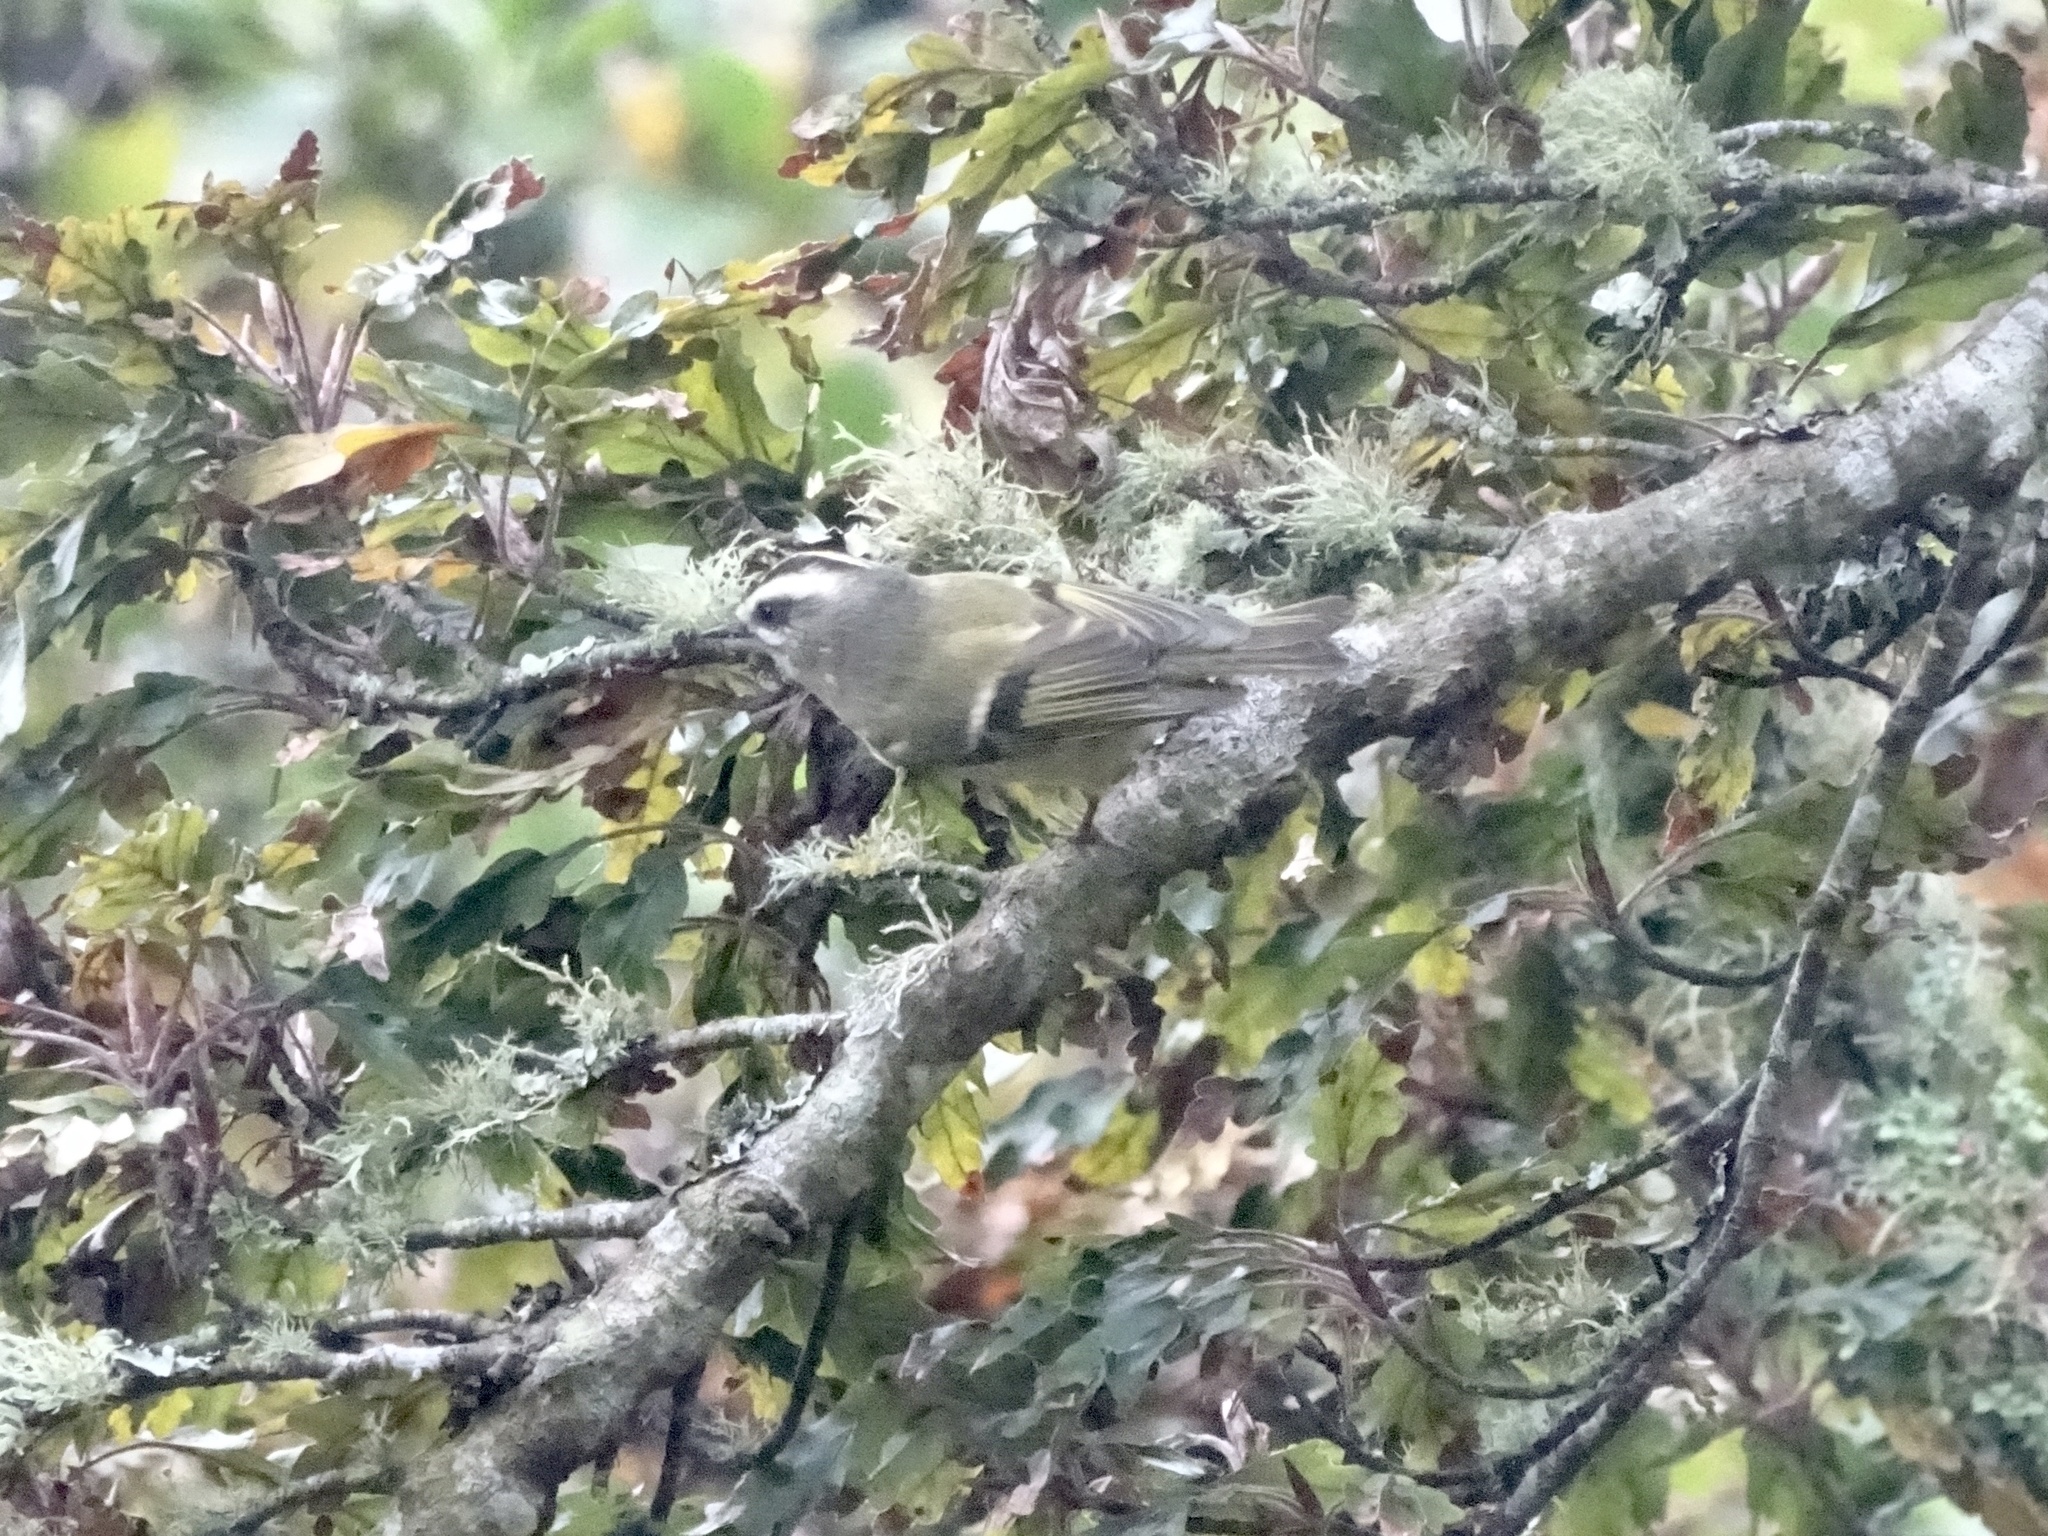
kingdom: Animalia
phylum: Chordata
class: Aves
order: Passeriformes
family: Regulidae
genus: Regulus
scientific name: Regulus satrapa
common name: Golden-crowned kinglet
